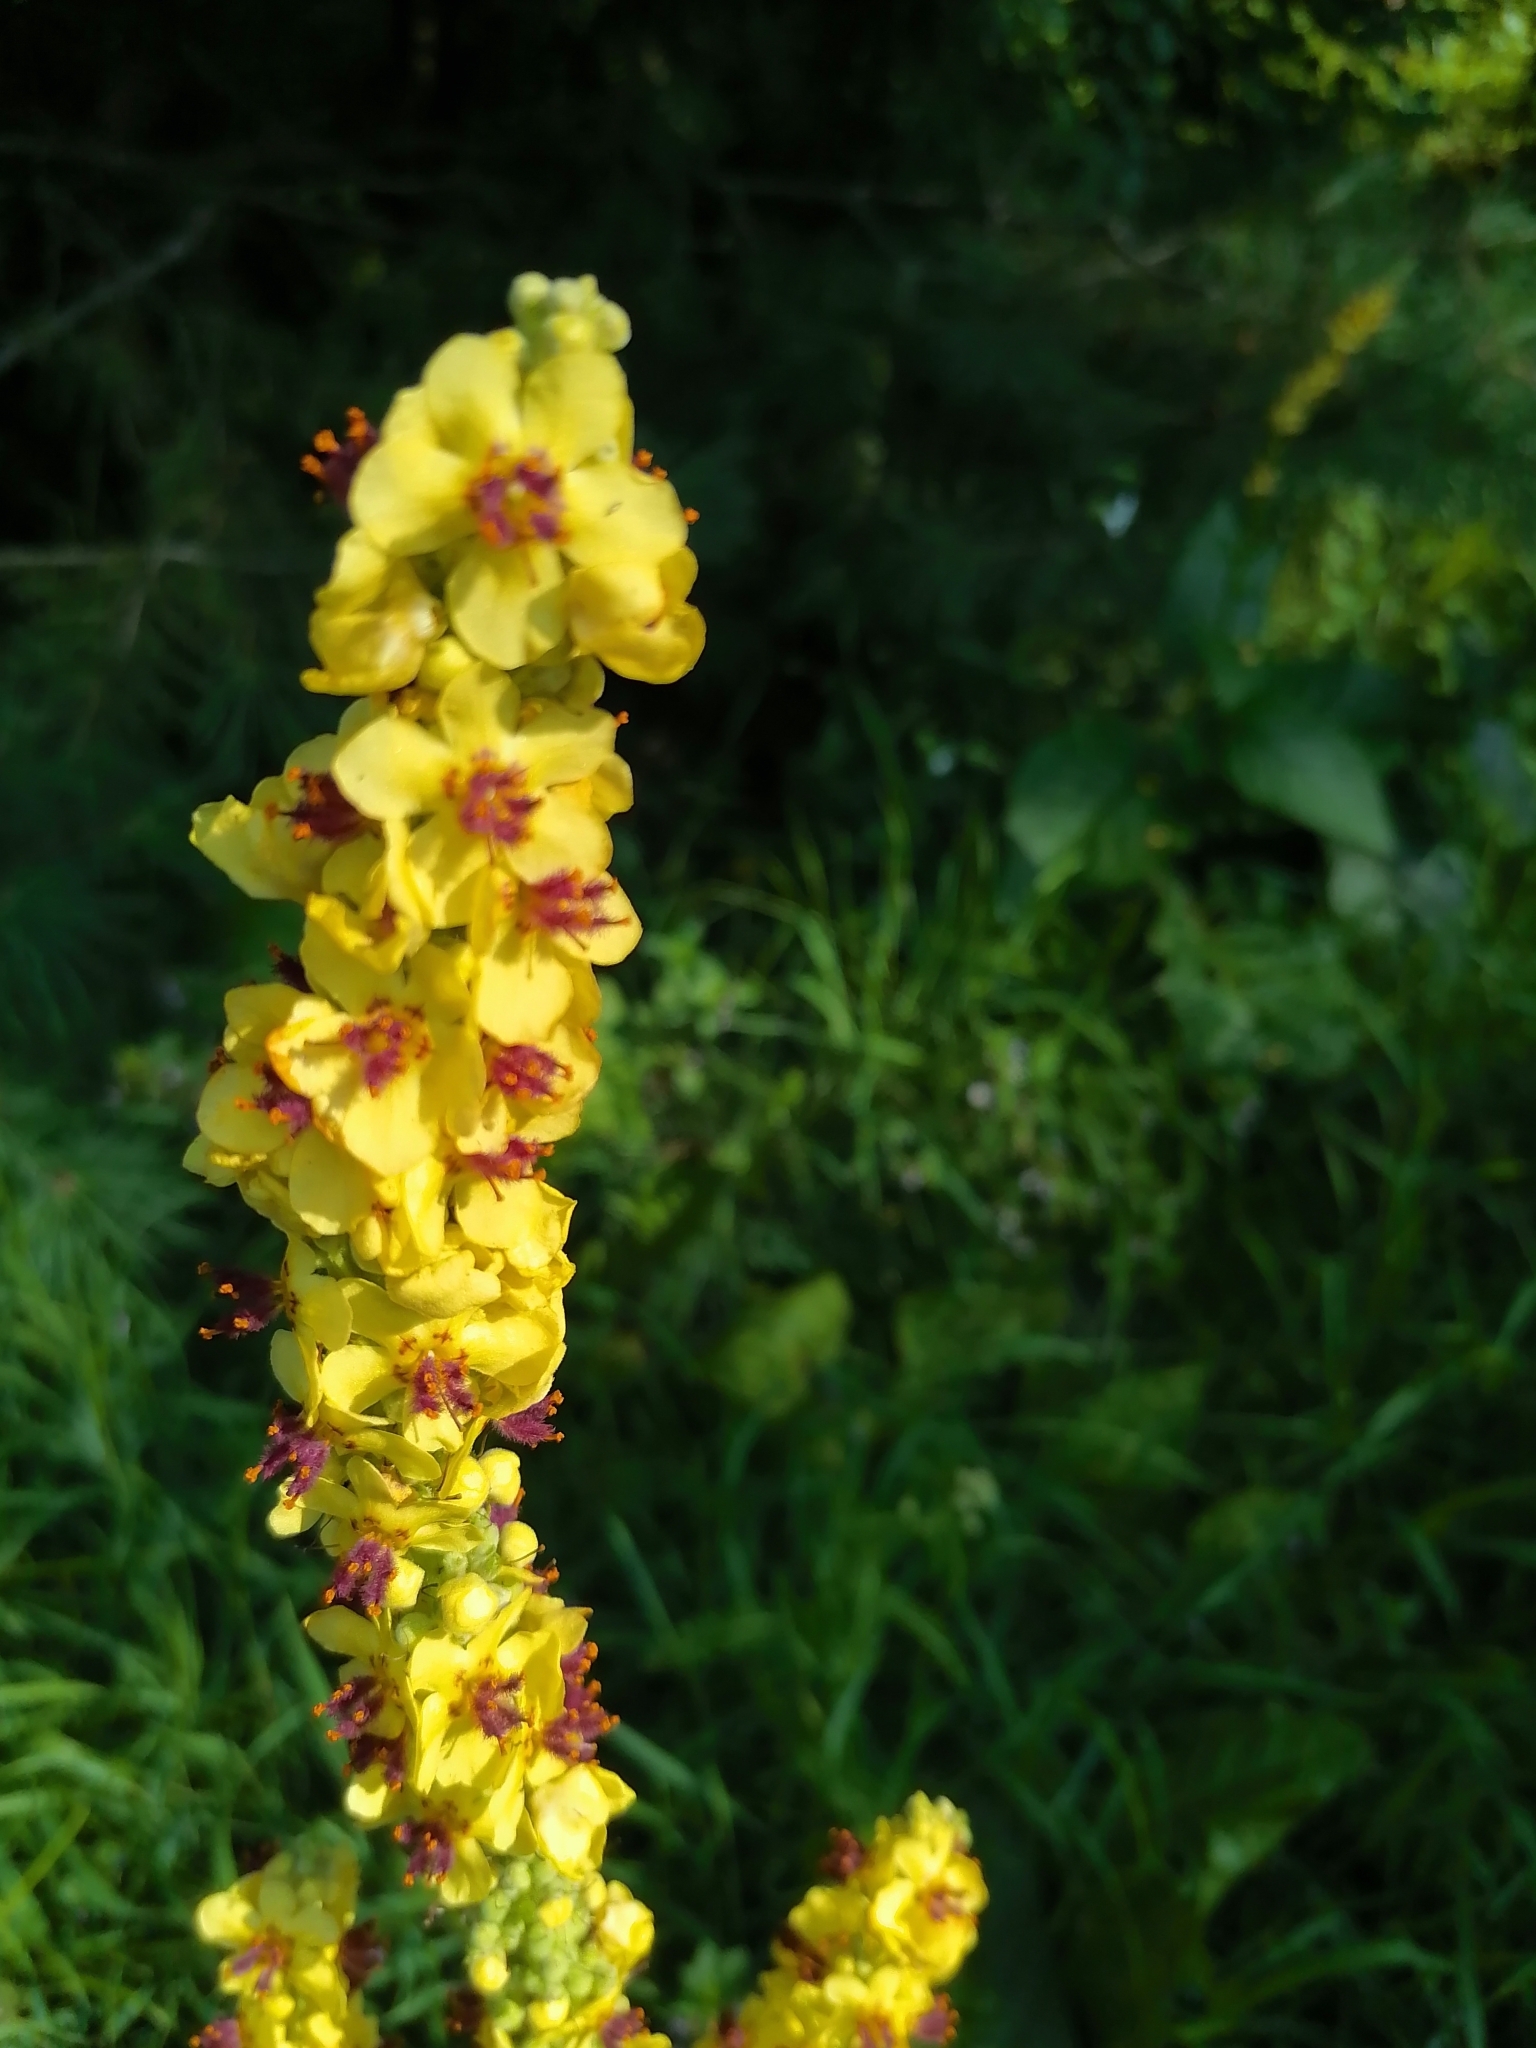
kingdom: Plantae
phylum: Tracheophyta
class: Magnoliopsida
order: Lamiales
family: Scrophulariaceae
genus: Verbascum
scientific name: Verbascum nigrum
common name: Dark mullein
